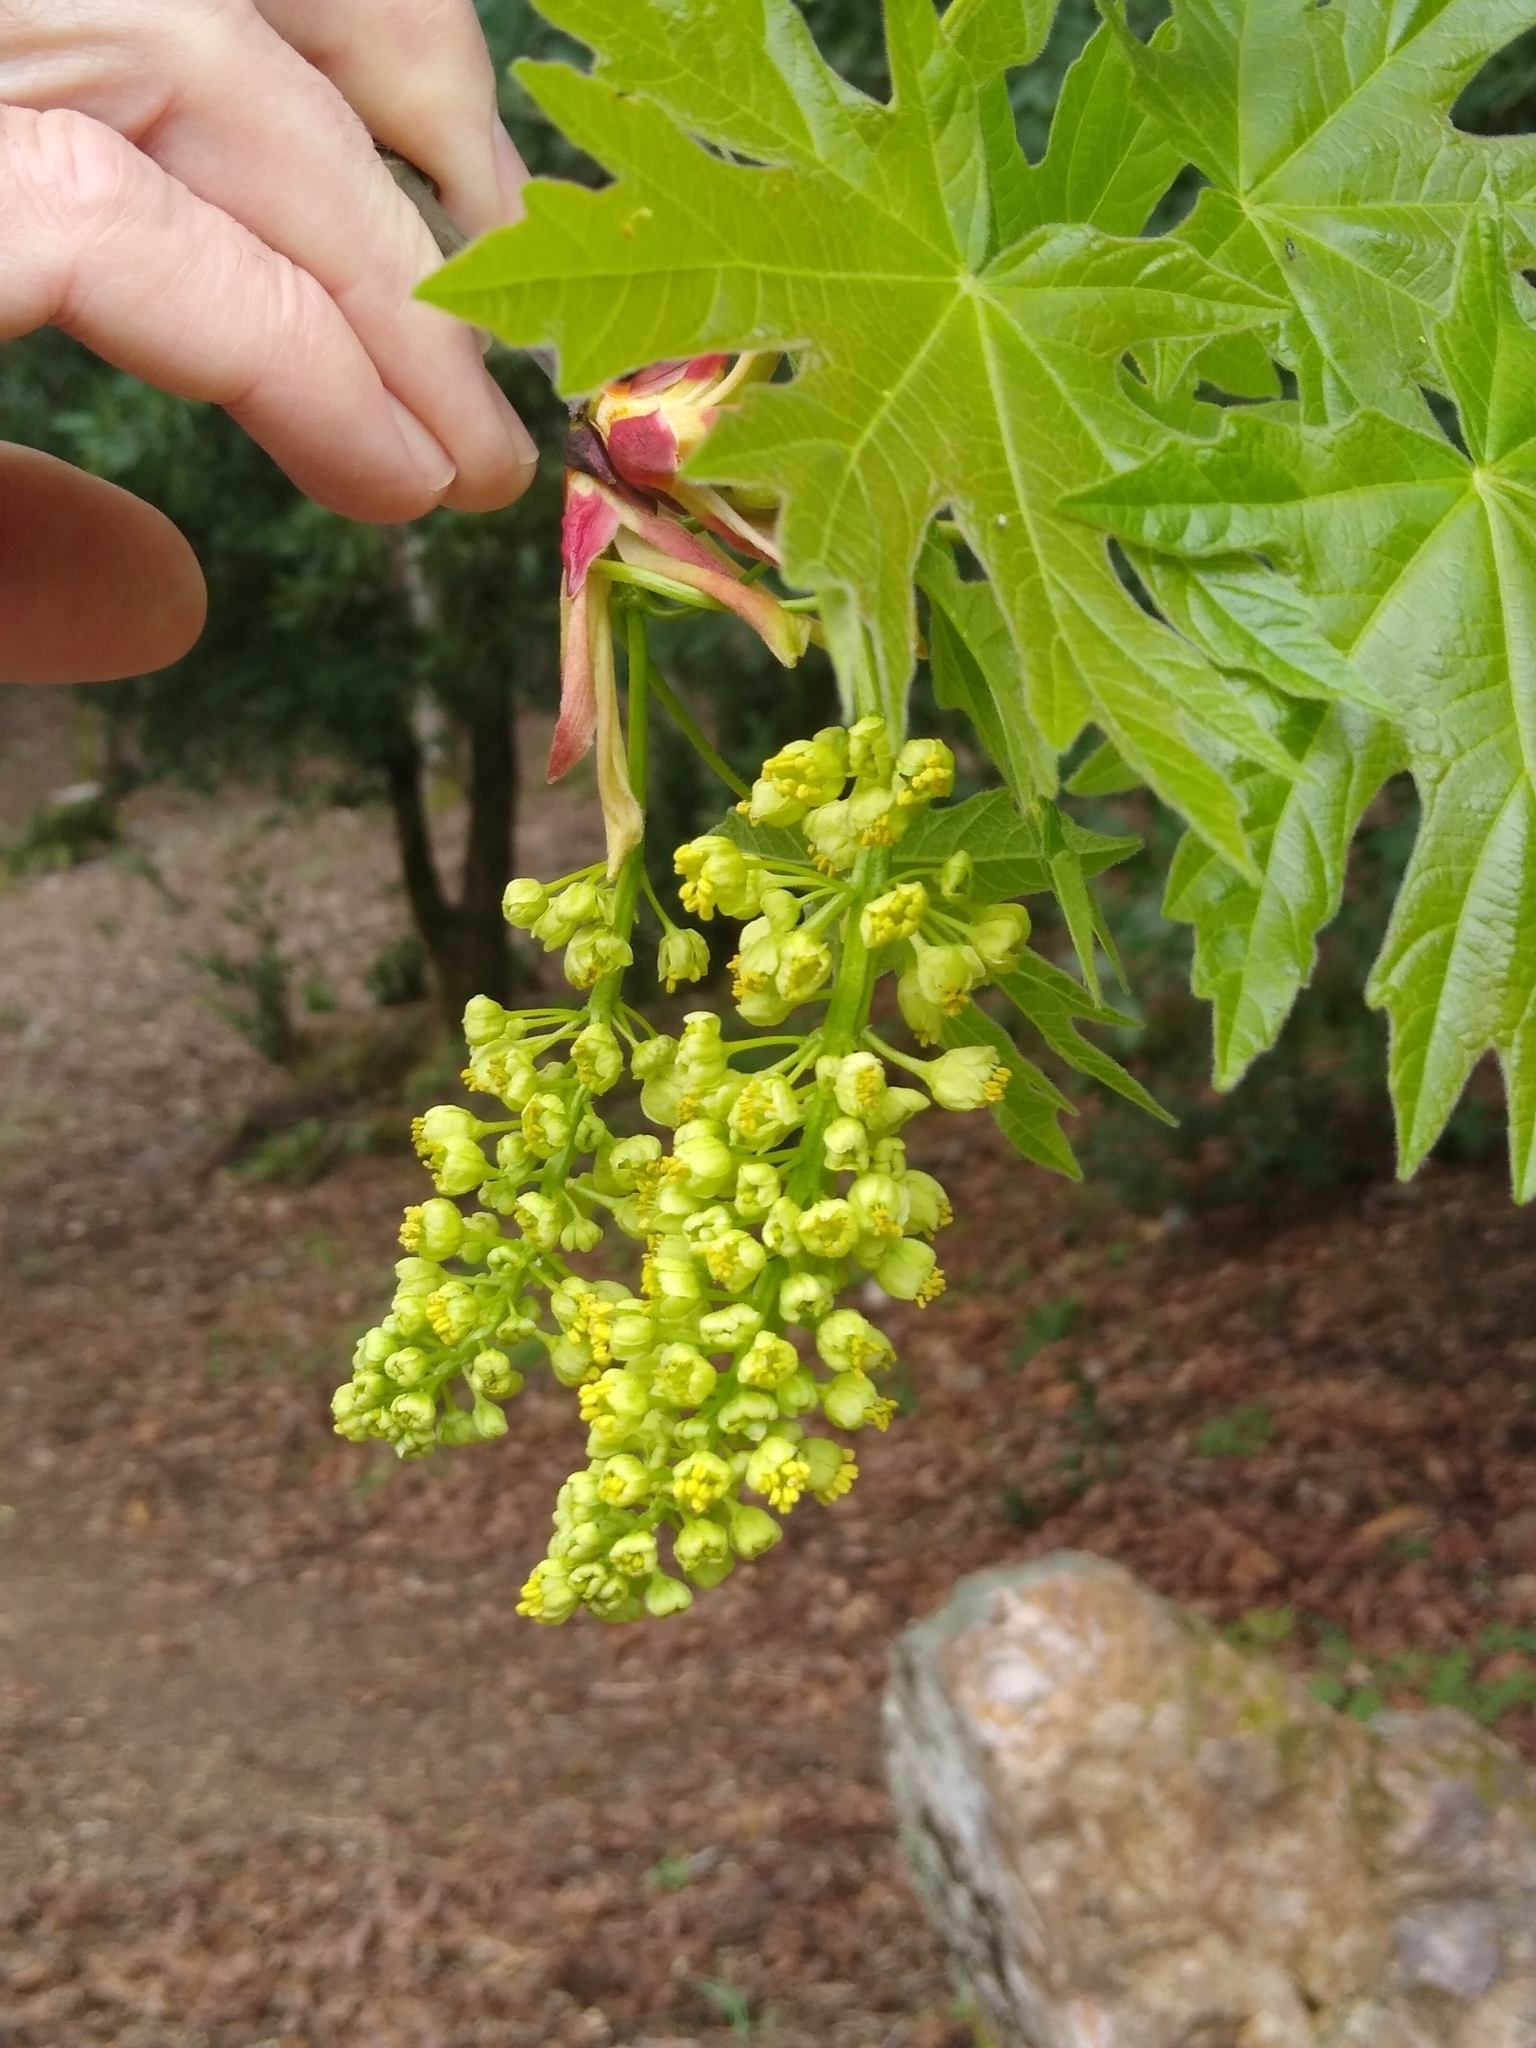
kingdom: Plantae
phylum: Tracheophyta
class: Magnoliopsida
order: Sapindales
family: Sapindaceae
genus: Acer
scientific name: Acer macrophyllum
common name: Oregon maple
